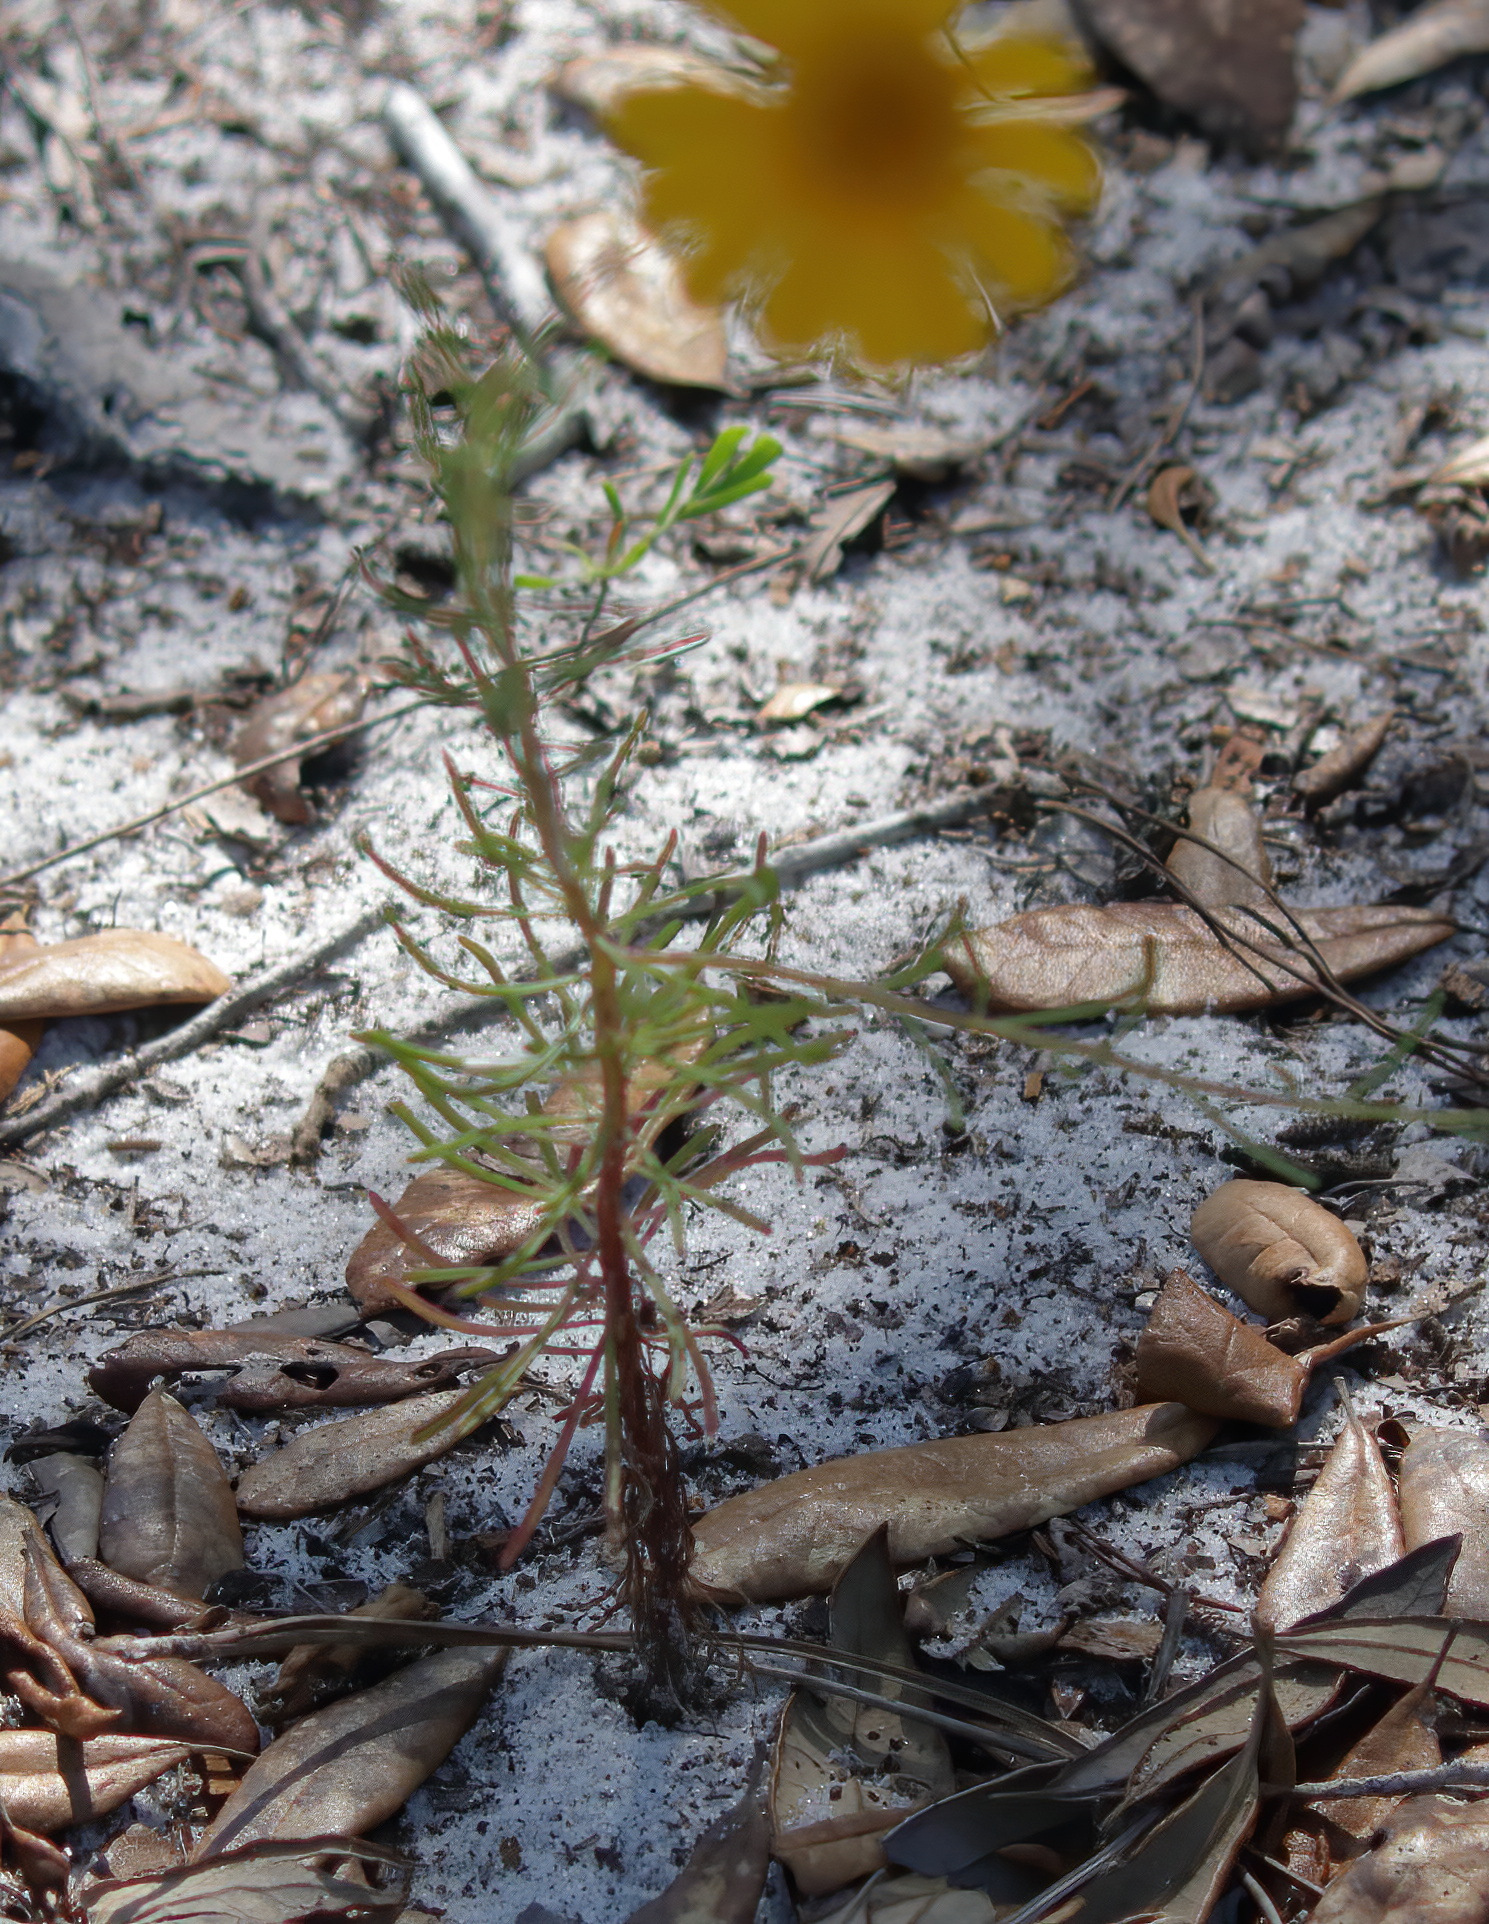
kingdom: Plantae
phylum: Tracheophyta
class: Magnoliopsida
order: Asterales
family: Asteraceae
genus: Balduina
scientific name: Balduina angustifolia
